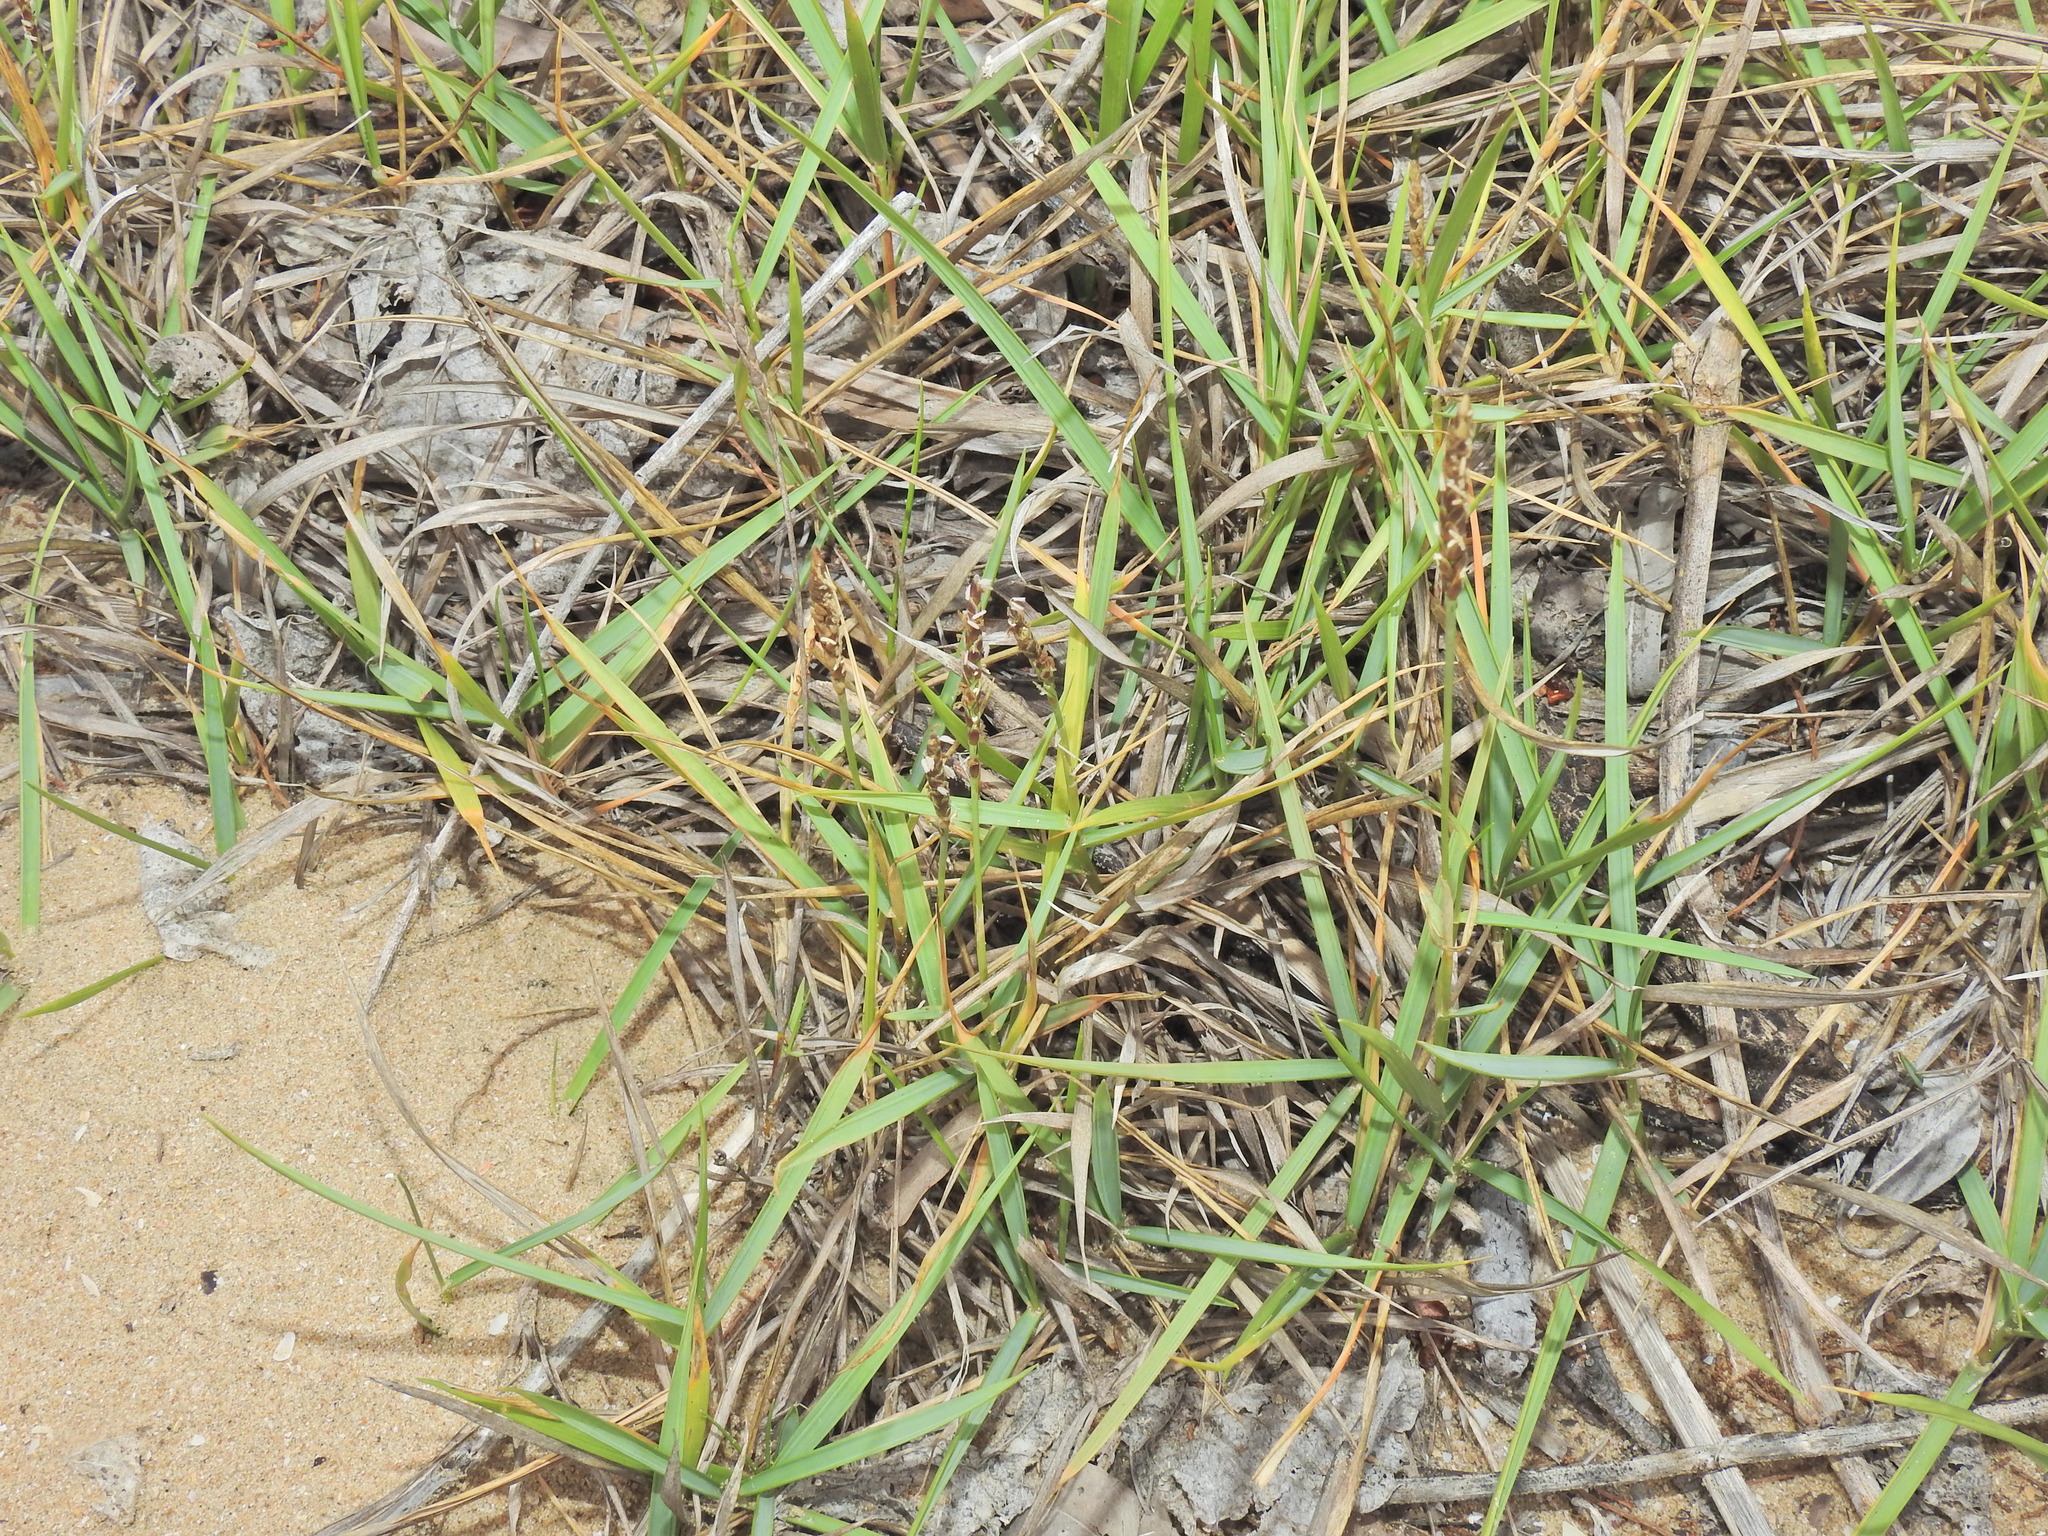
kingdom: Plantae
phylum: Tracheophyta
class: Liliopsida
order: Poales
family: Poaceae
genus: Zoysia
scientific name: Zoysia macrantha
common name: Korean lawn grass
